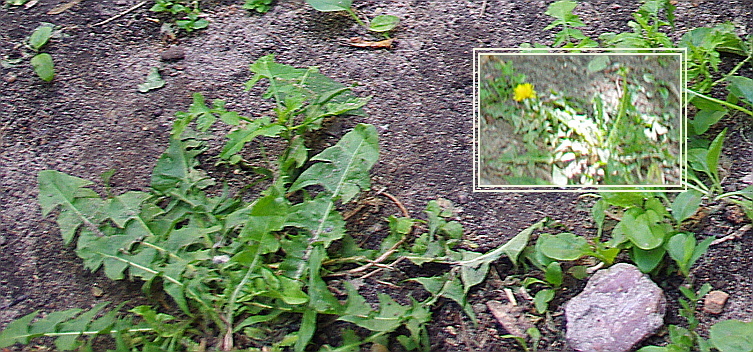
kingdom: Plantae
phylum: Tracheophyta
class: Magnoliopsida
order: Asterales
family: Asteraceae
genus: Taraxacum
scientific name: Taraxacum officinale
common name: Common dandelion
